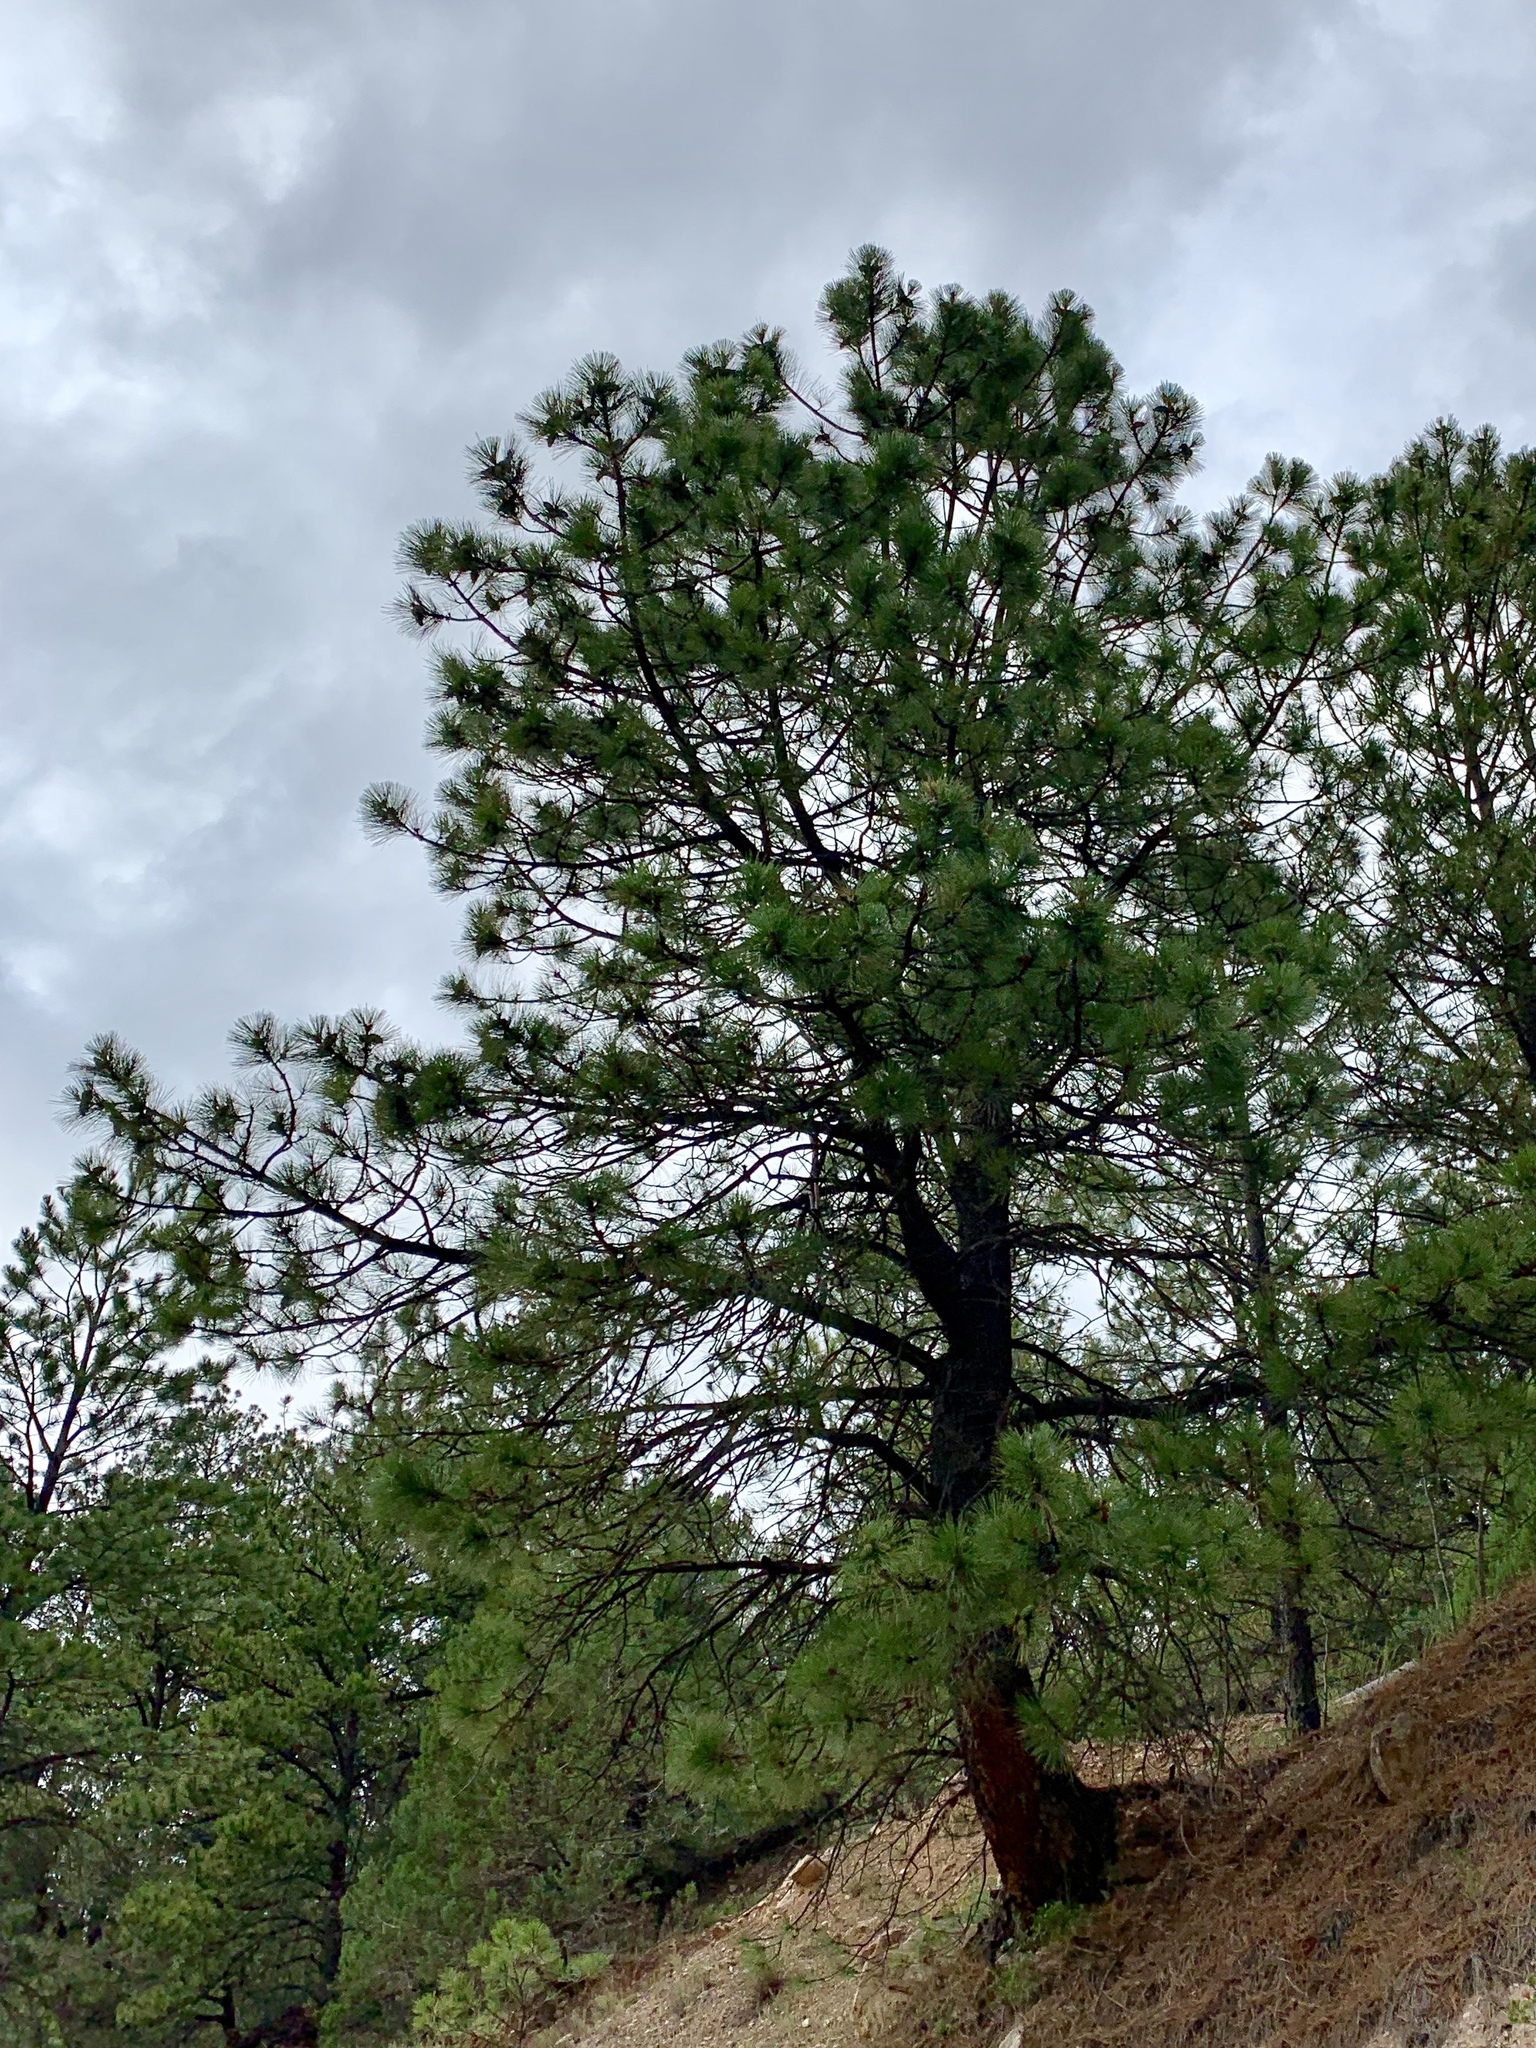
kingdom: Plantae
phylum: Tracheophyta
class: Pinopsida
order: Pinales
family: Pinaceae
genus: Pinus
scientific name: Pinus ponderosa
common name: Western yellow-pine
